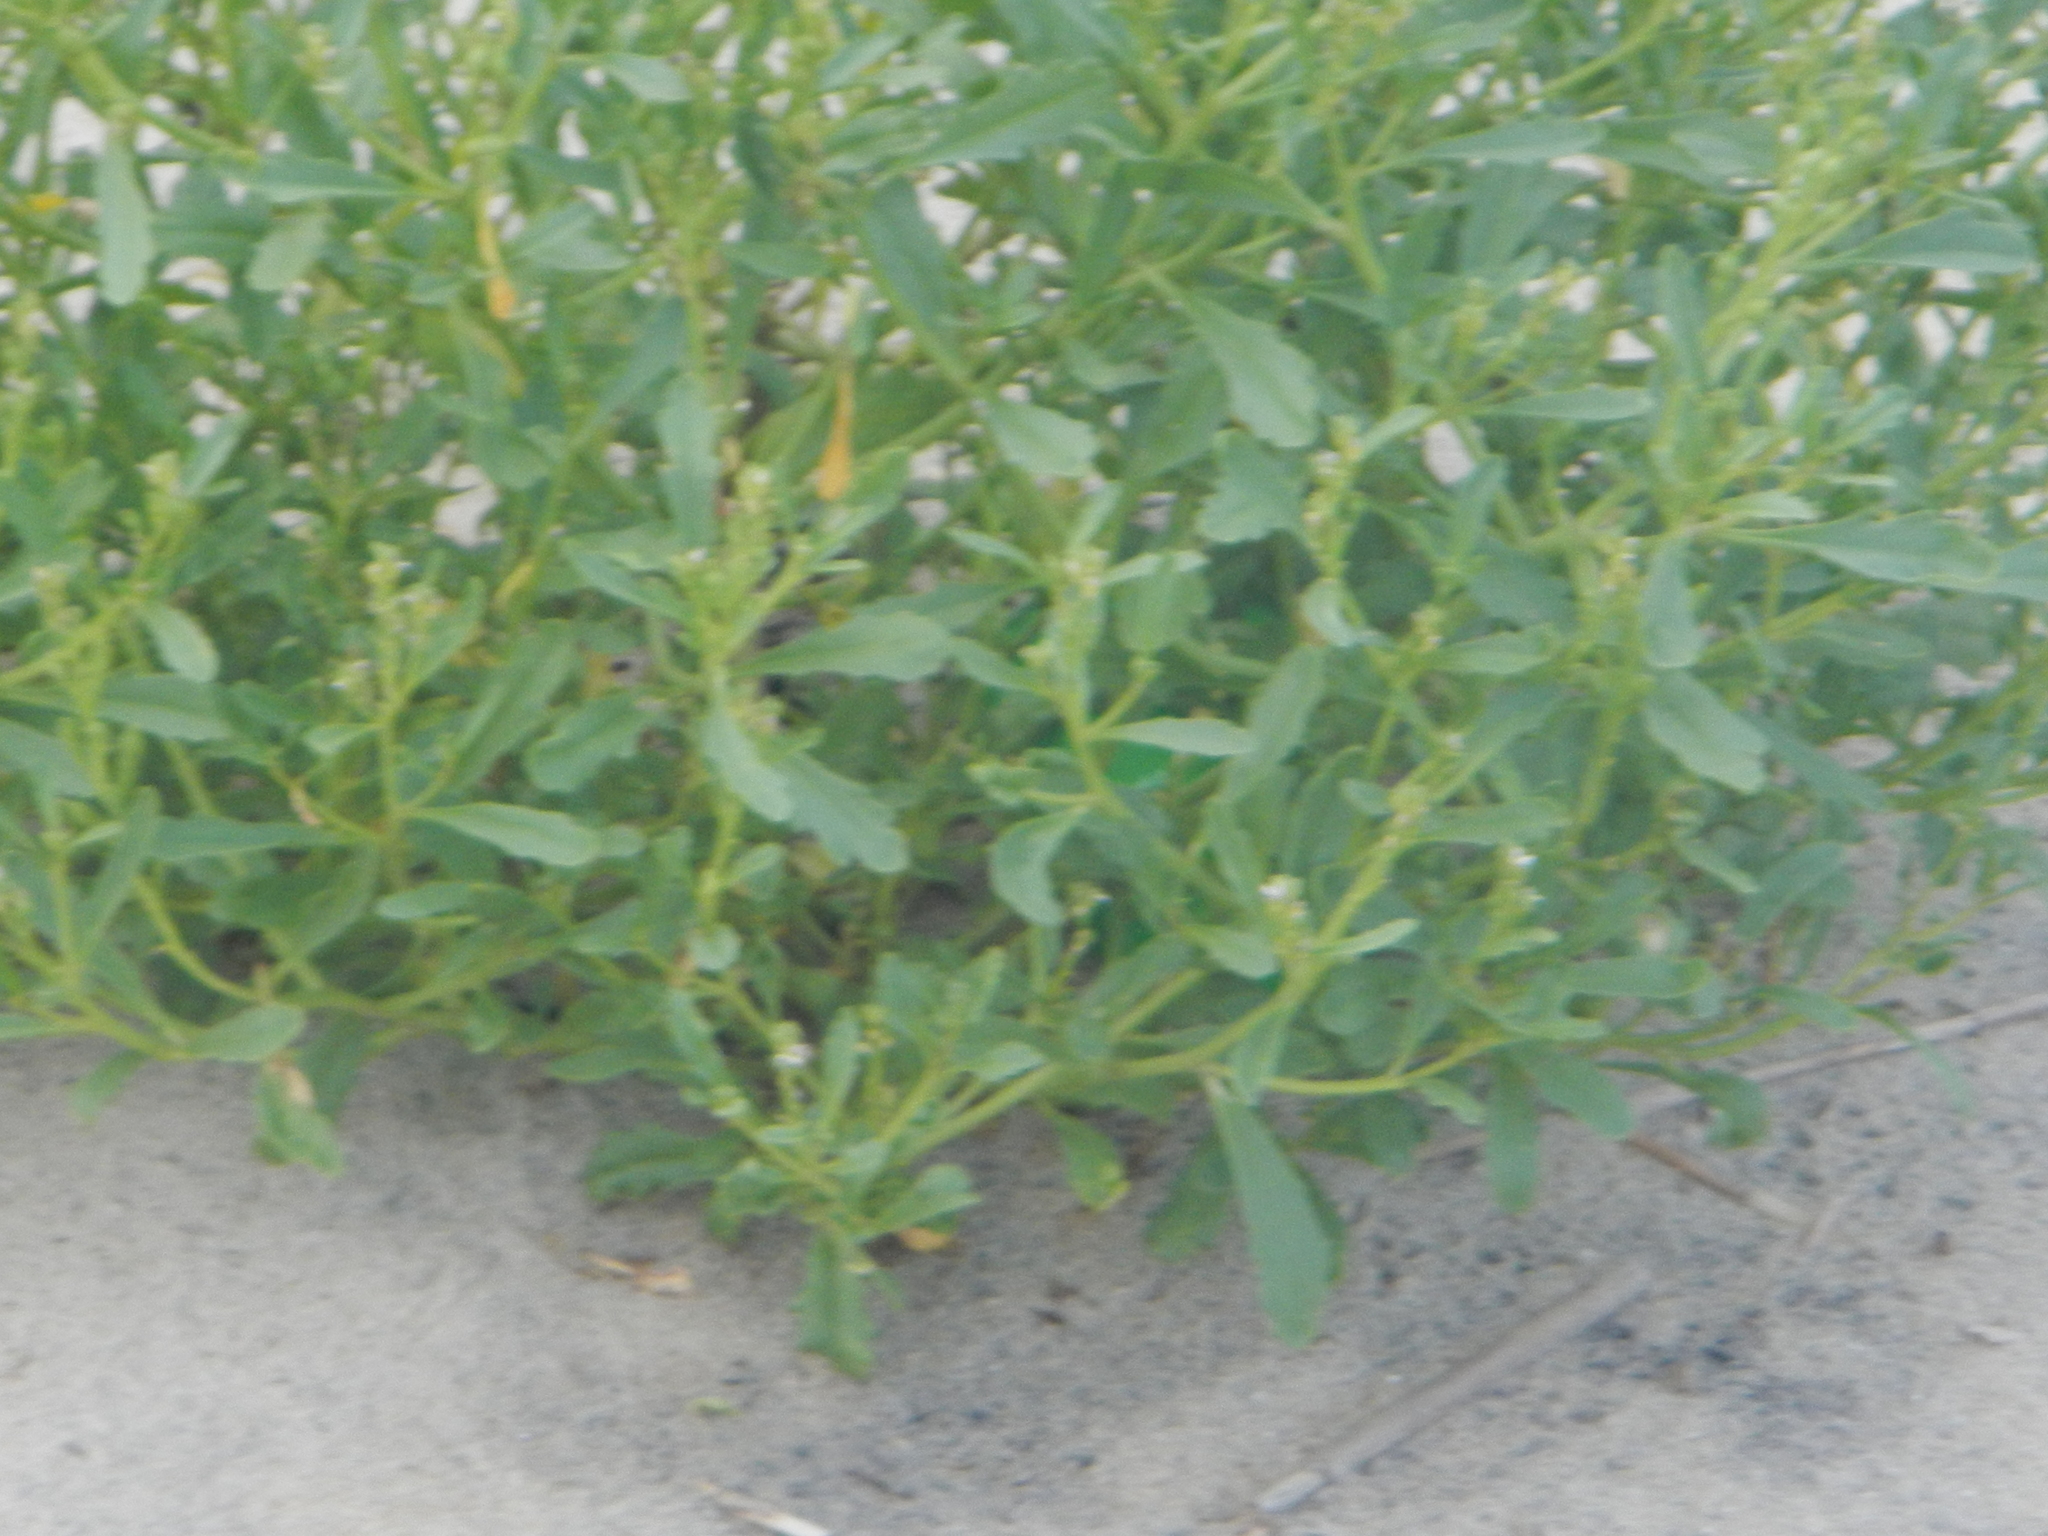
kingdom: Plantae
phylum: Tracheophyta
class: Magnoliopsida
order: Brassicales
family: Brassicaceae
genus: Cakile
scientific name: Cakile edentula
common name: American sea rocket
